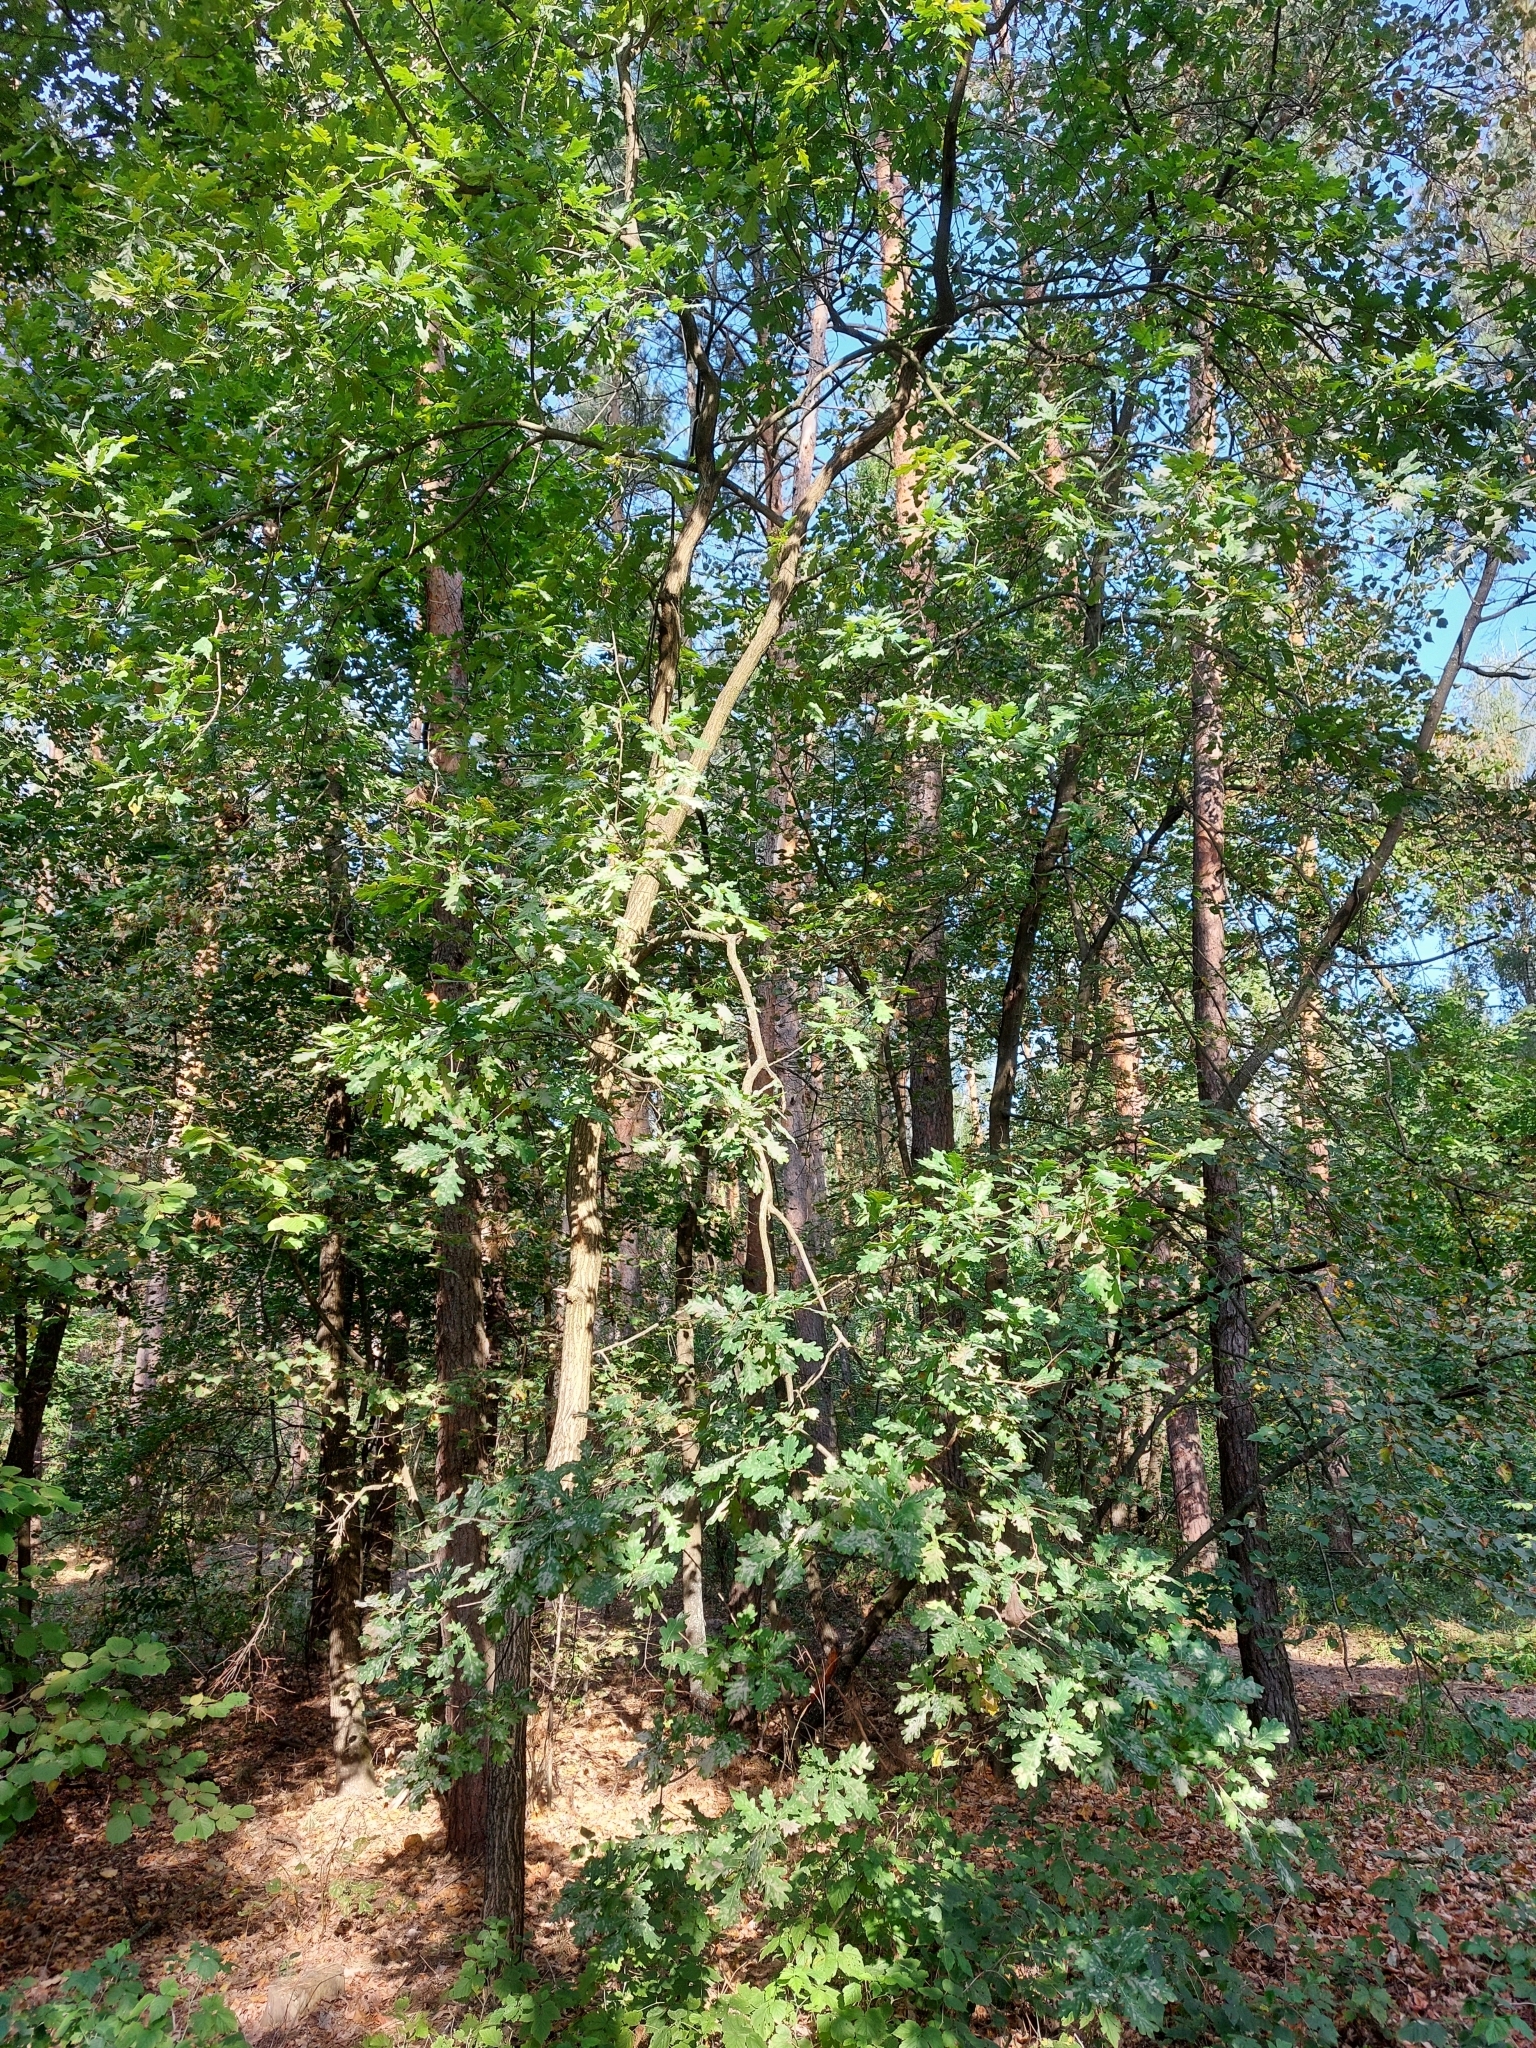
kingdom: Plantae
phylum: Tracheophyta
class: Magnoliopsida
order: Fagales
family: Fagaceae
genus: Quercus
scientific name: Quercus robur
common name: Pedunculate oak
